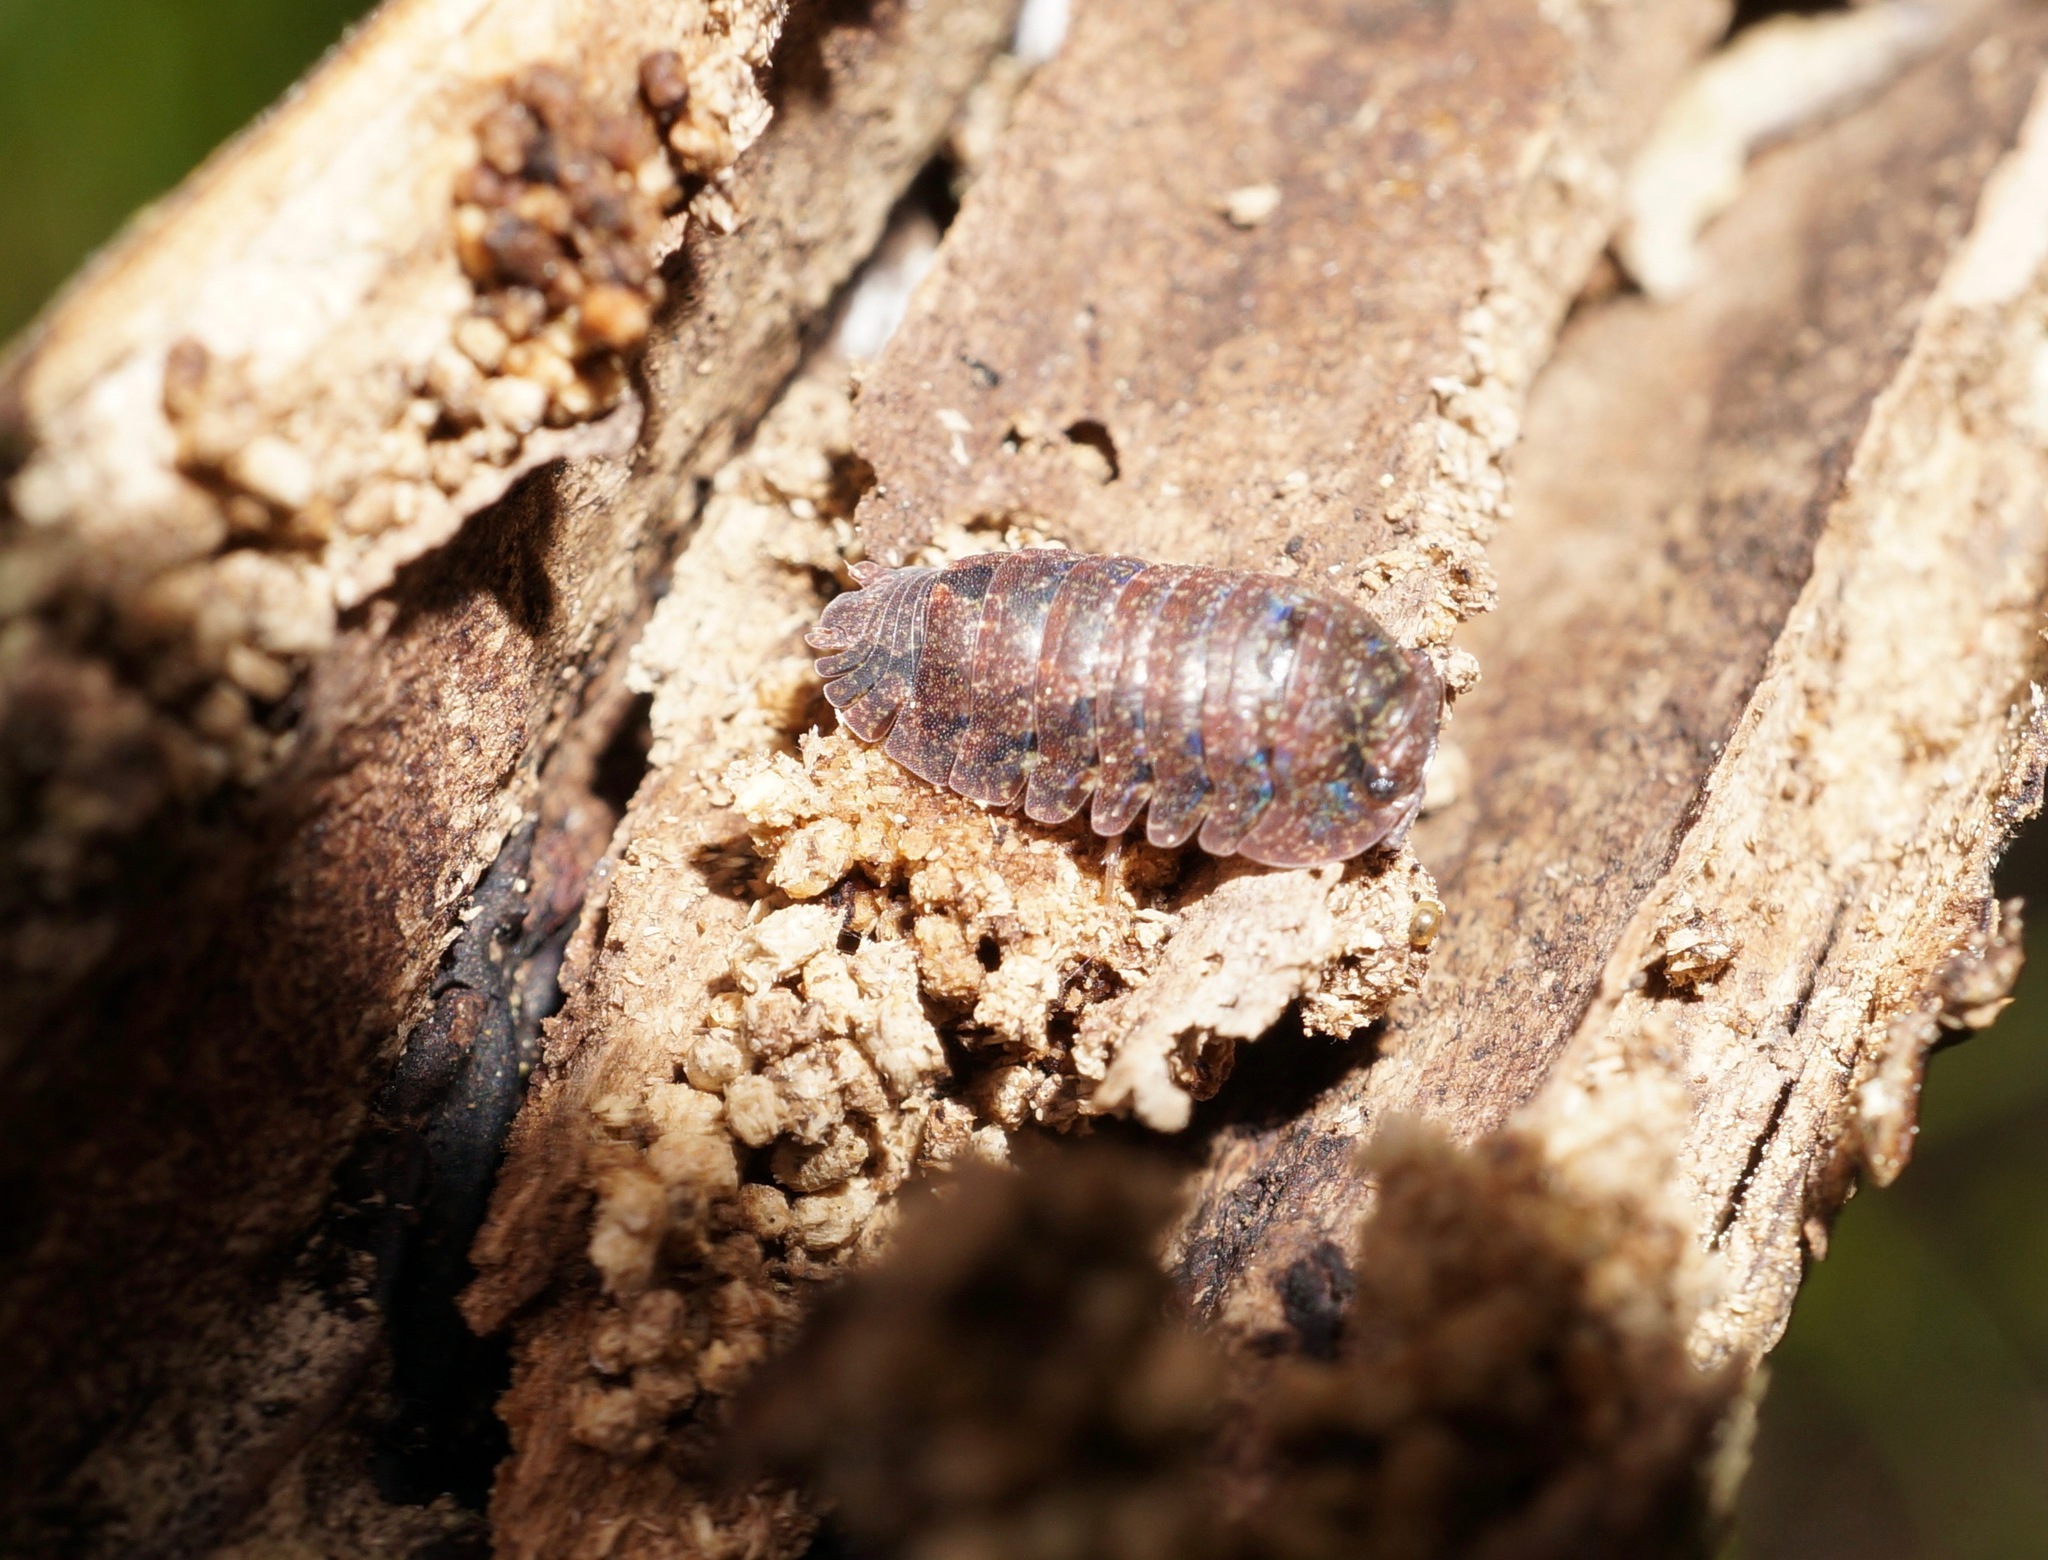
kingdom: Animalia
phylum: Arthropoda
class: Malacostraca
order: Isopoda
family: Armadillidae
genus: Cubaris
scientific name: Cubaris tarangensis
